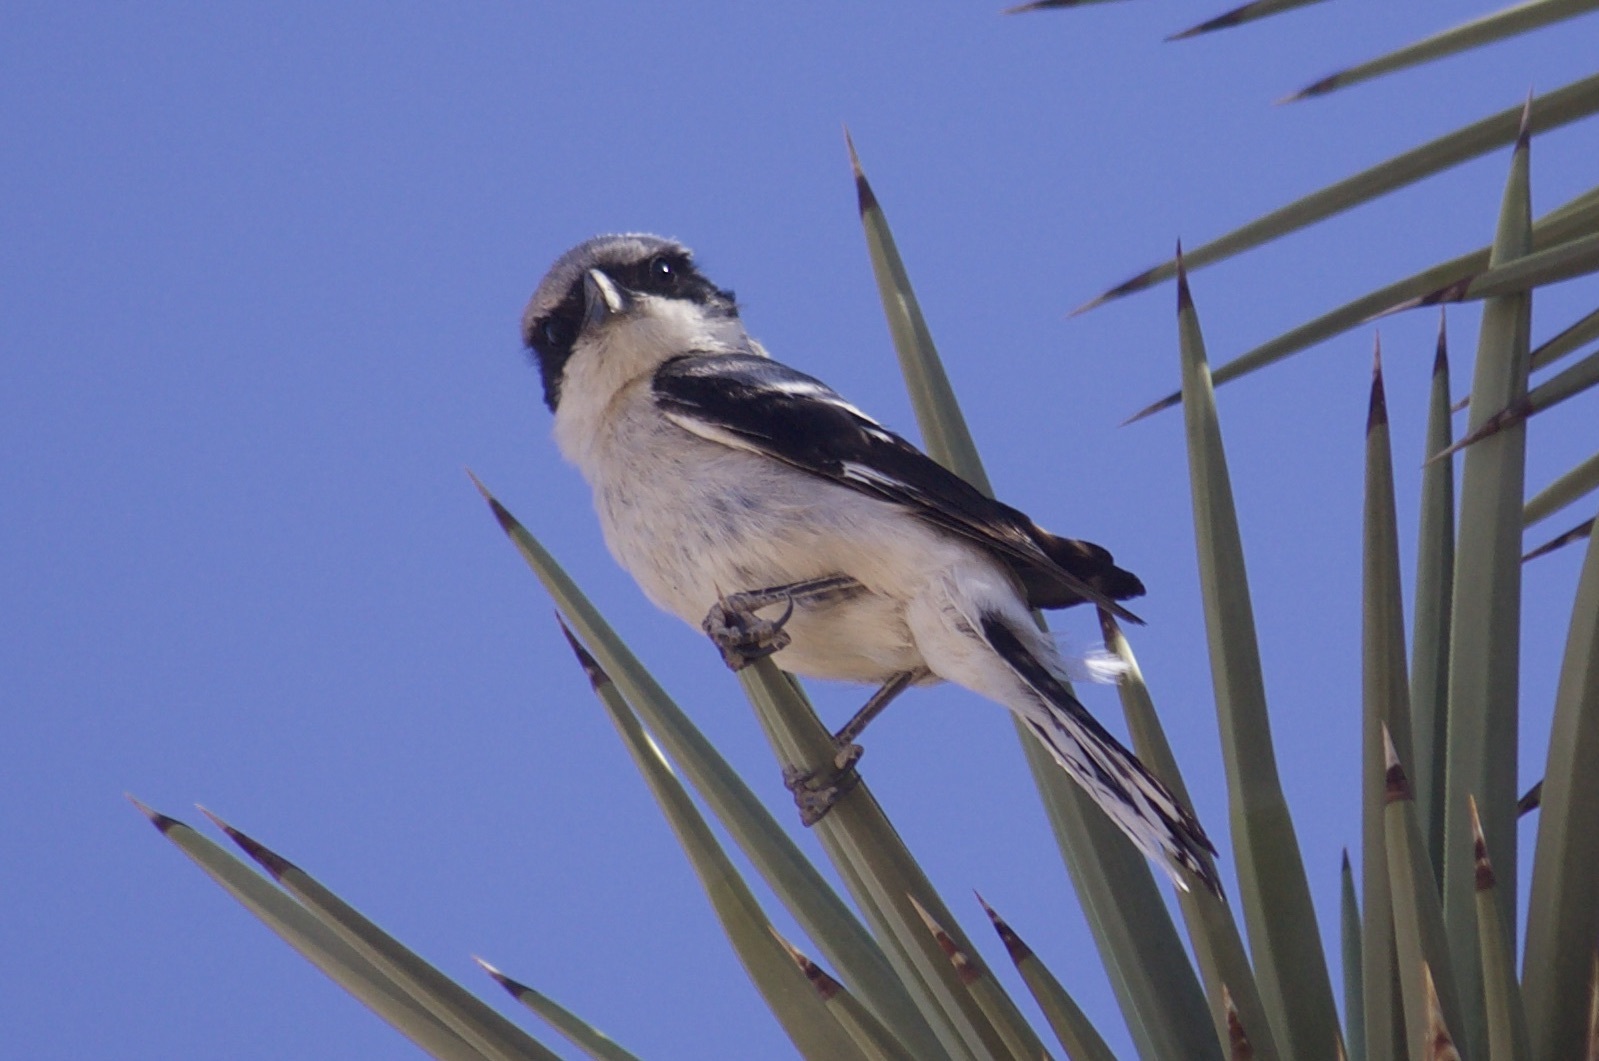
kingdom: Animalia
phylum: Chordata
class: Aves
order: Passeriformes
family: Laniidae
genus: Lanius
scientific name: Lanius ludovicianus
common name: Loggerhead shrike
